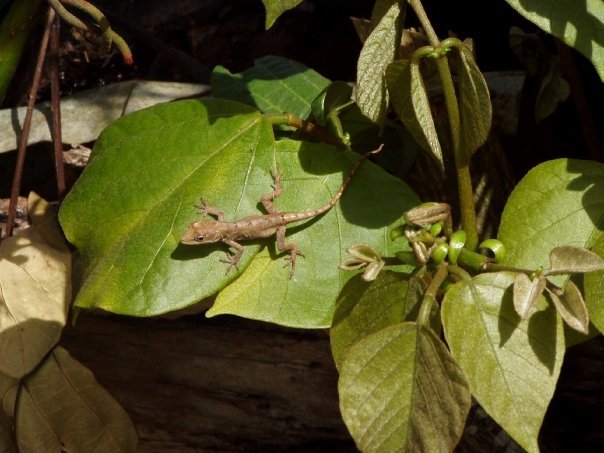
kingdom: Animalia
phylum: Chordata
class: Squamata
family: Dactyloidae
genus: Anolis
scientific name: Anolis limifrons
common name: Border anole
